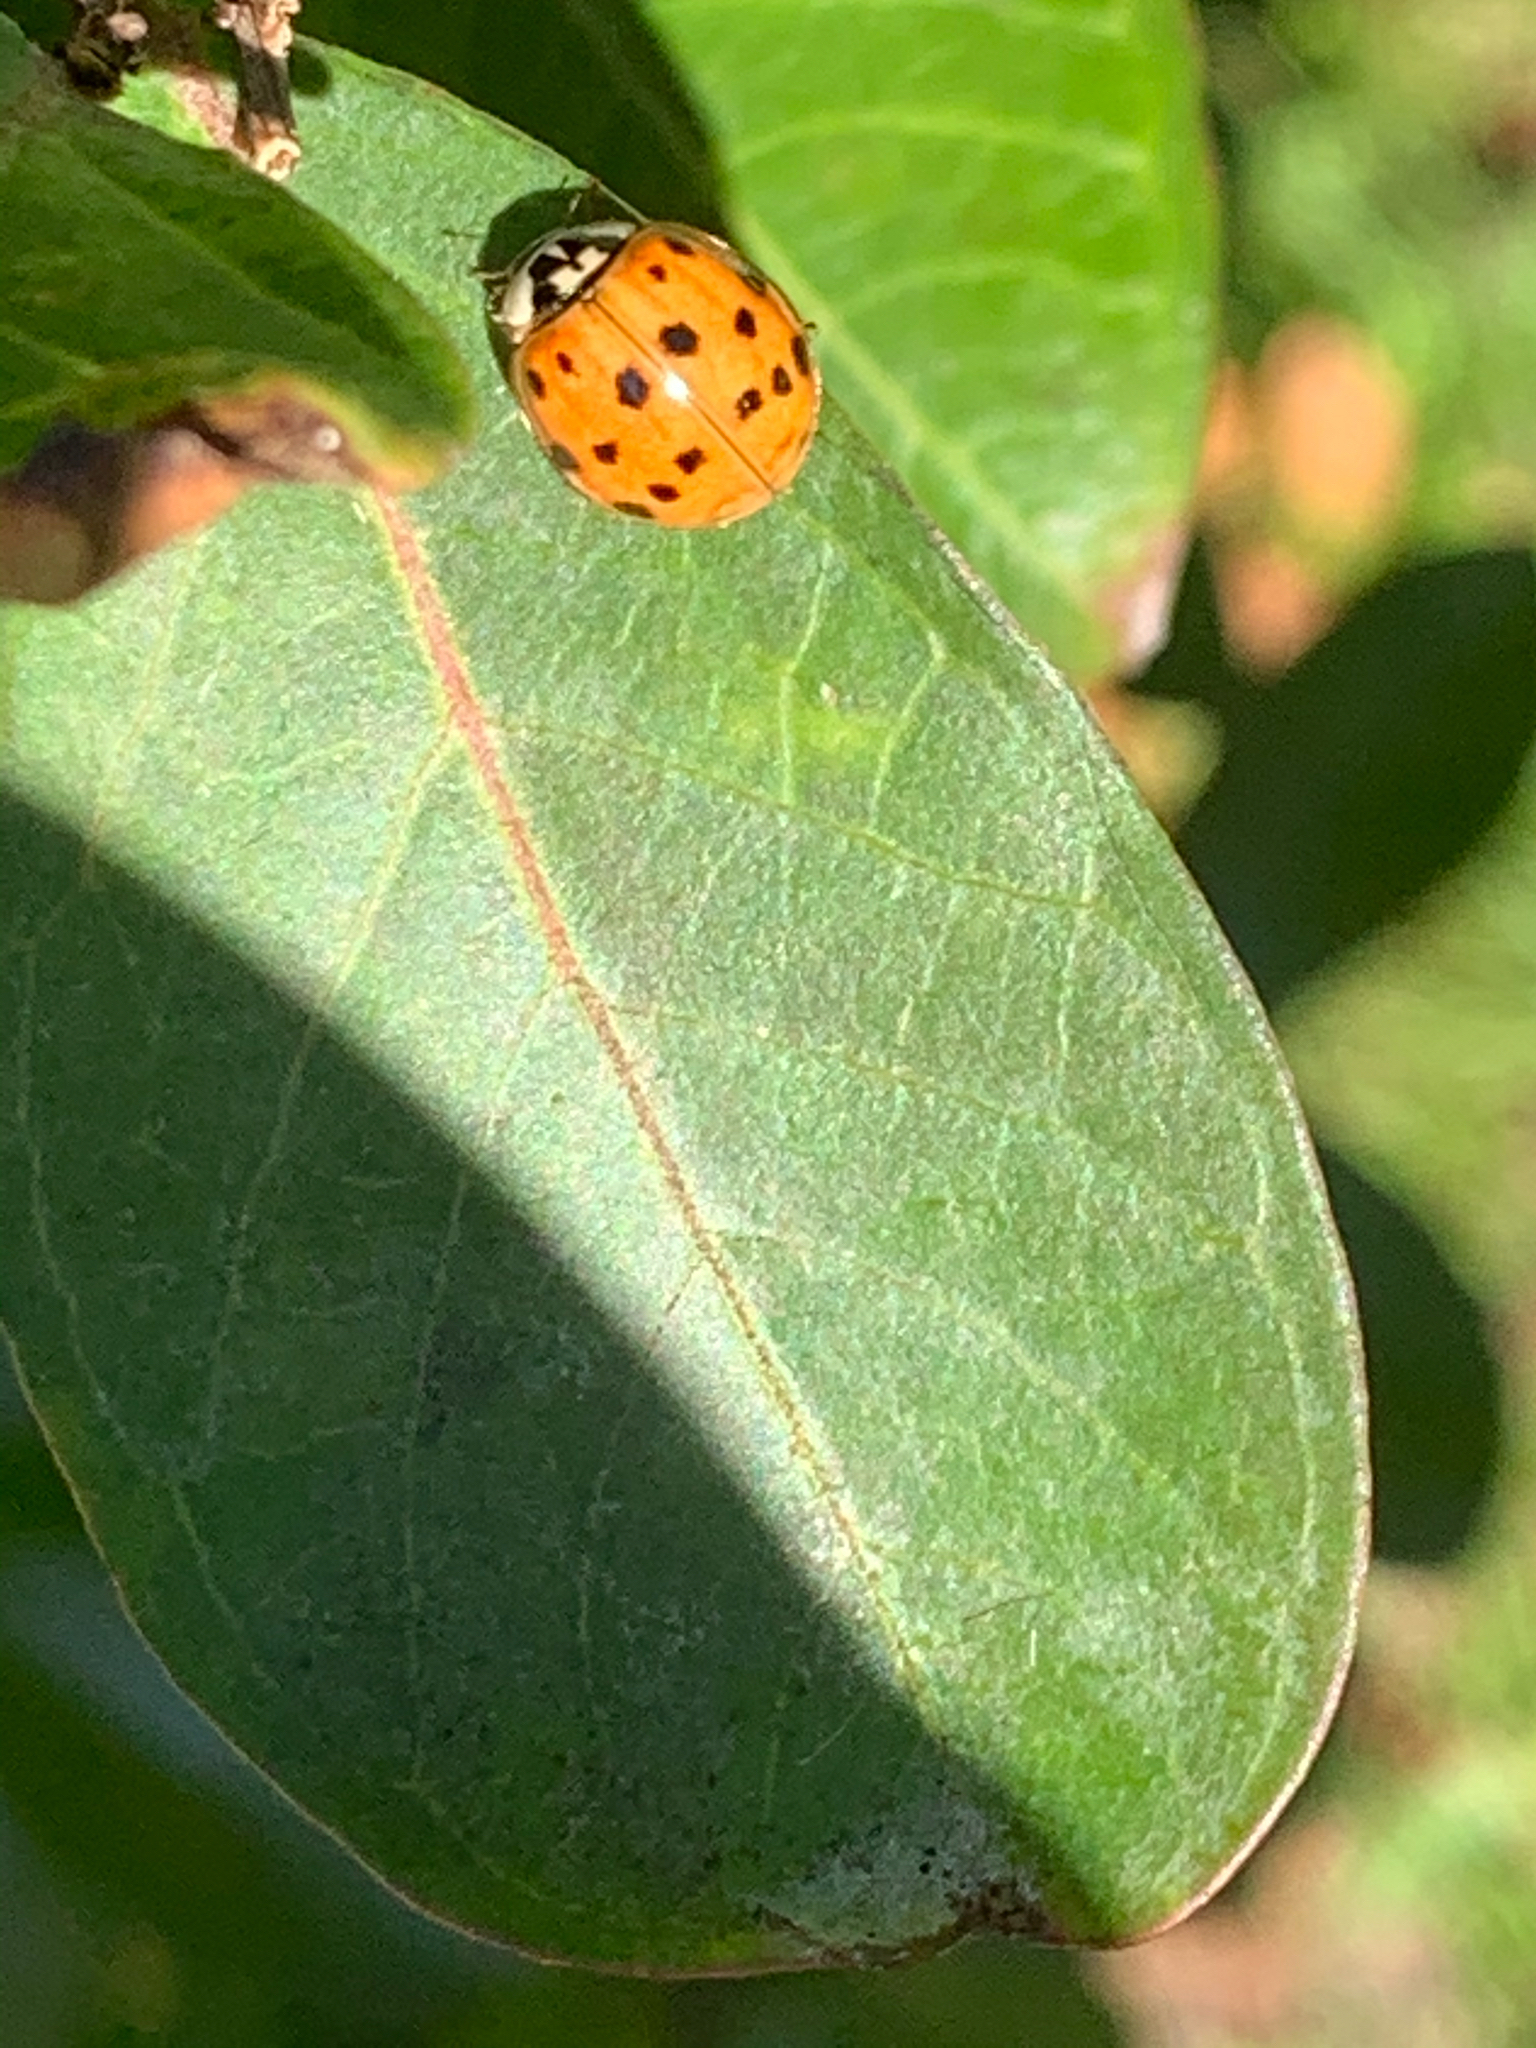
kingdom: Animalia
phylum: Arthropoda
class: Insecta
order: Coleoptera
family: Coccinellidae
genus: Harmonia
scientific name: Harmonia axyridis
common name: Harlequin ladybird
